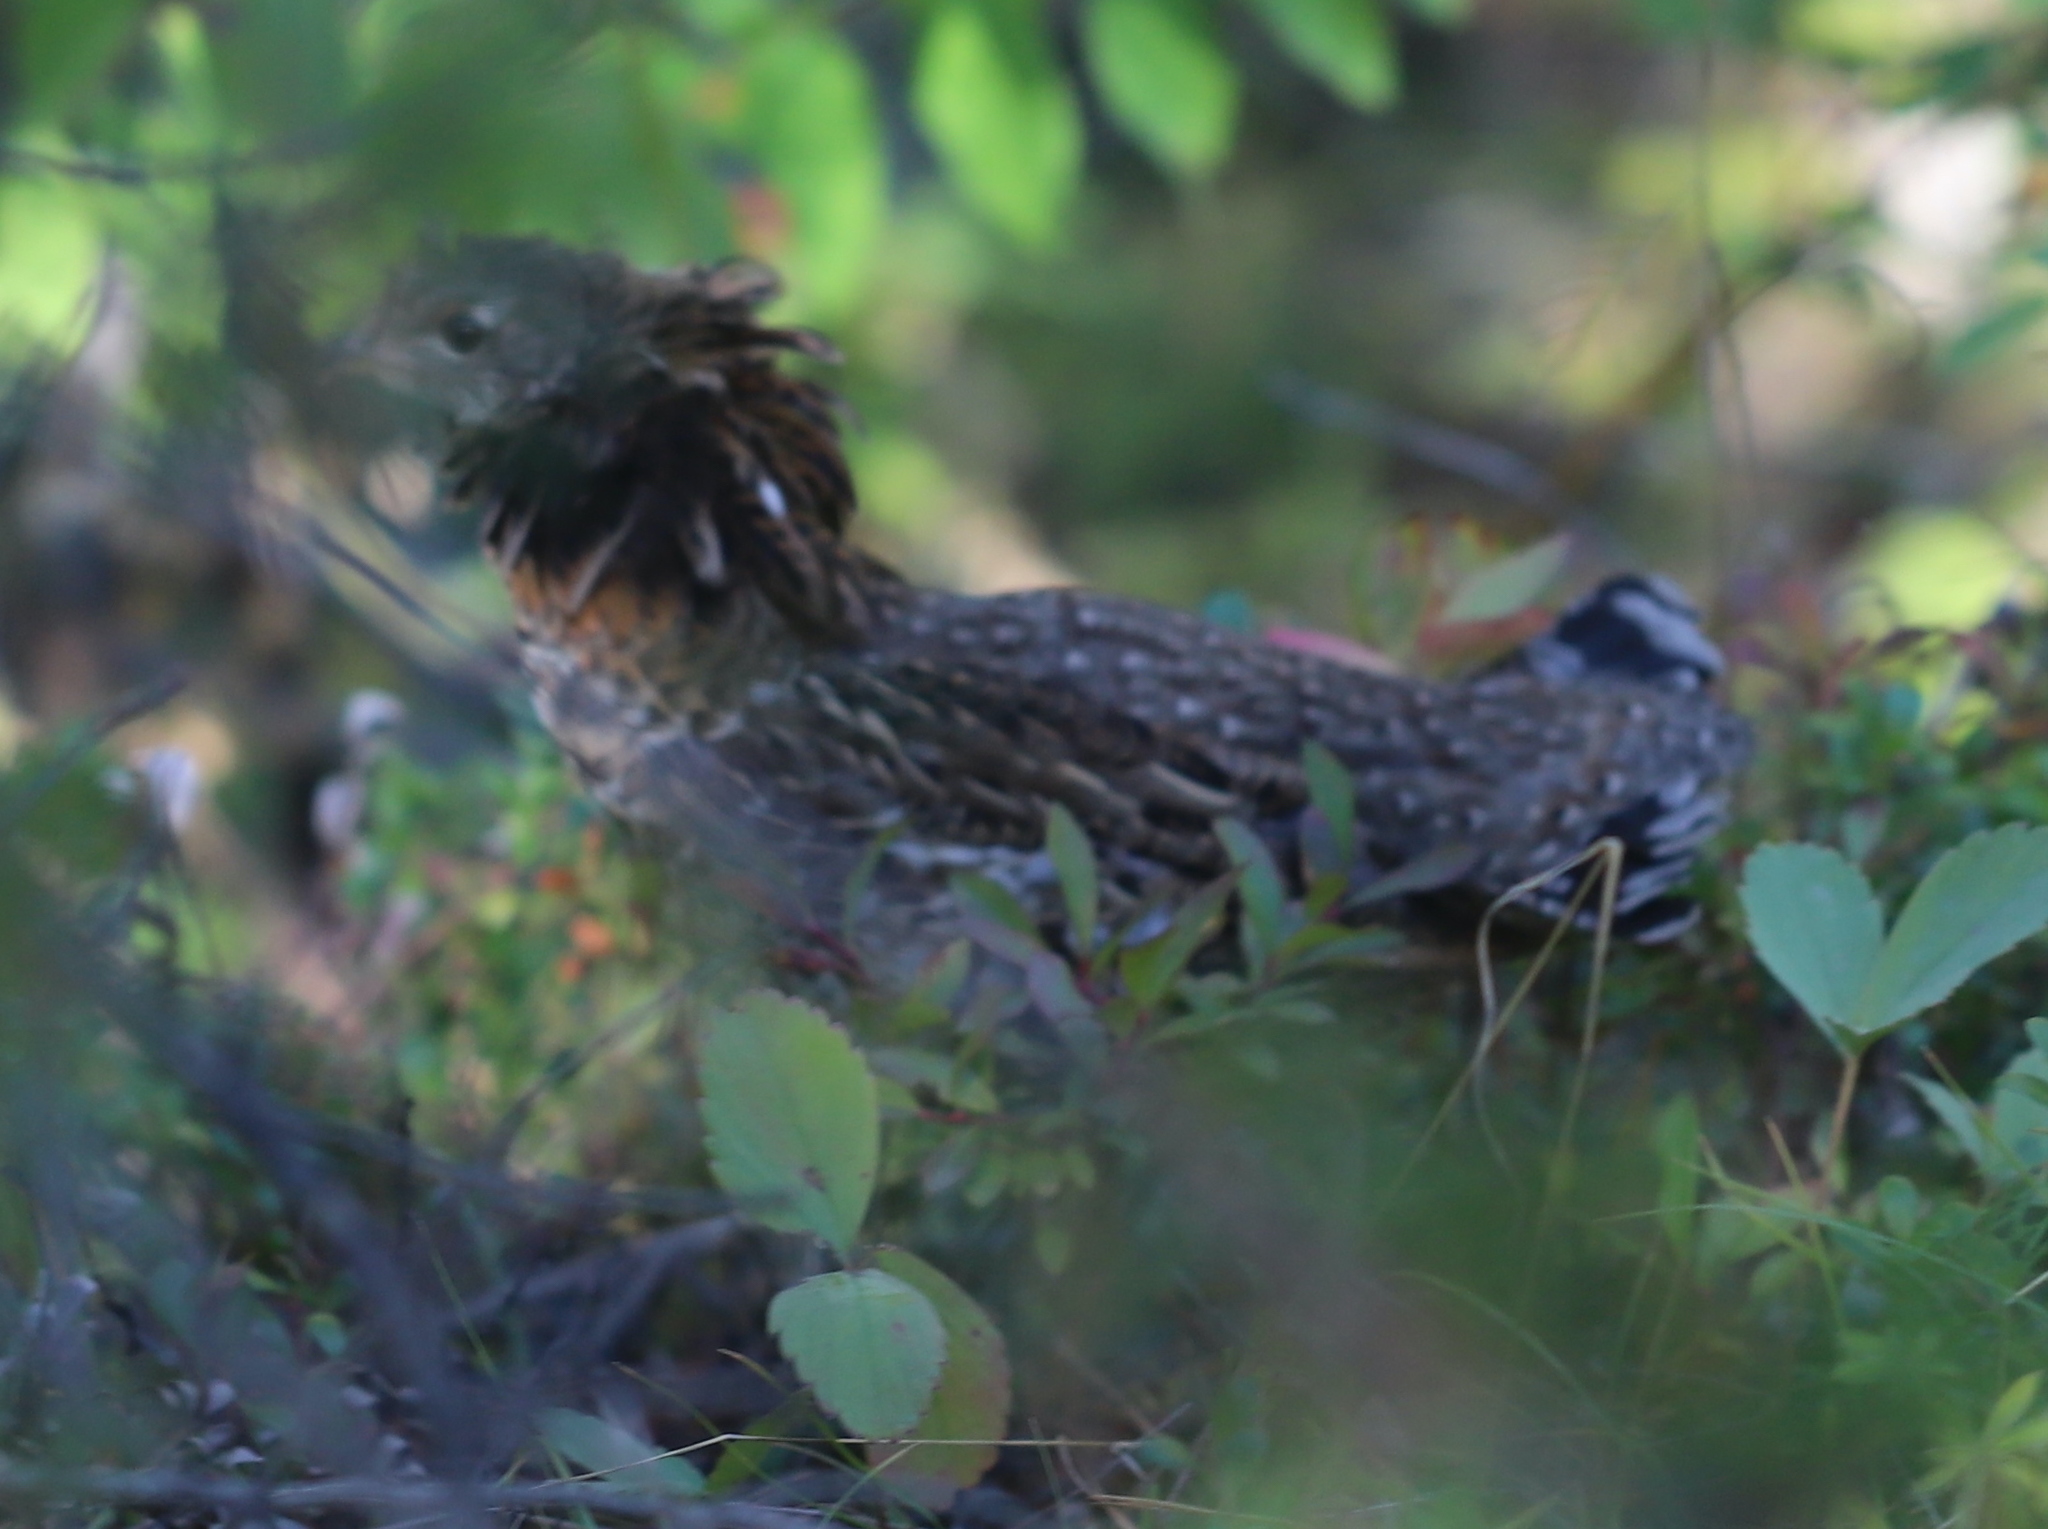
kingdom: Animalia
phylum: Chordata
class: Aves
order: Galliformes
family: Phasianidae
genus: Bonasa
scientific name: Bonasa umbellus
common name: Ruffed grouse
